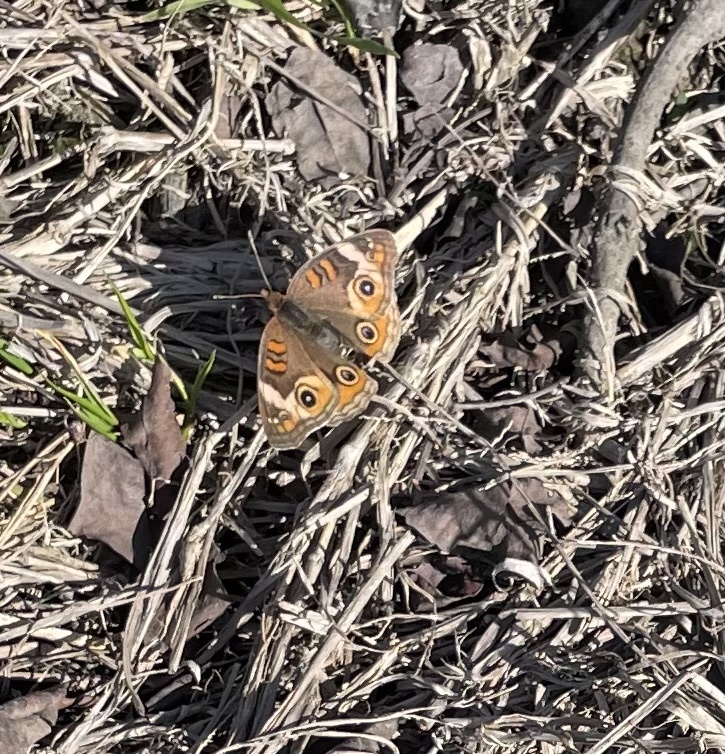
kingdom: Animalia
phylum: Arthropoda
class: Insecta
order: Lepidoptera
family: Nymphalidae
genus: Junonia
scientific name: Junonia coenia
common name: Common buckeye
